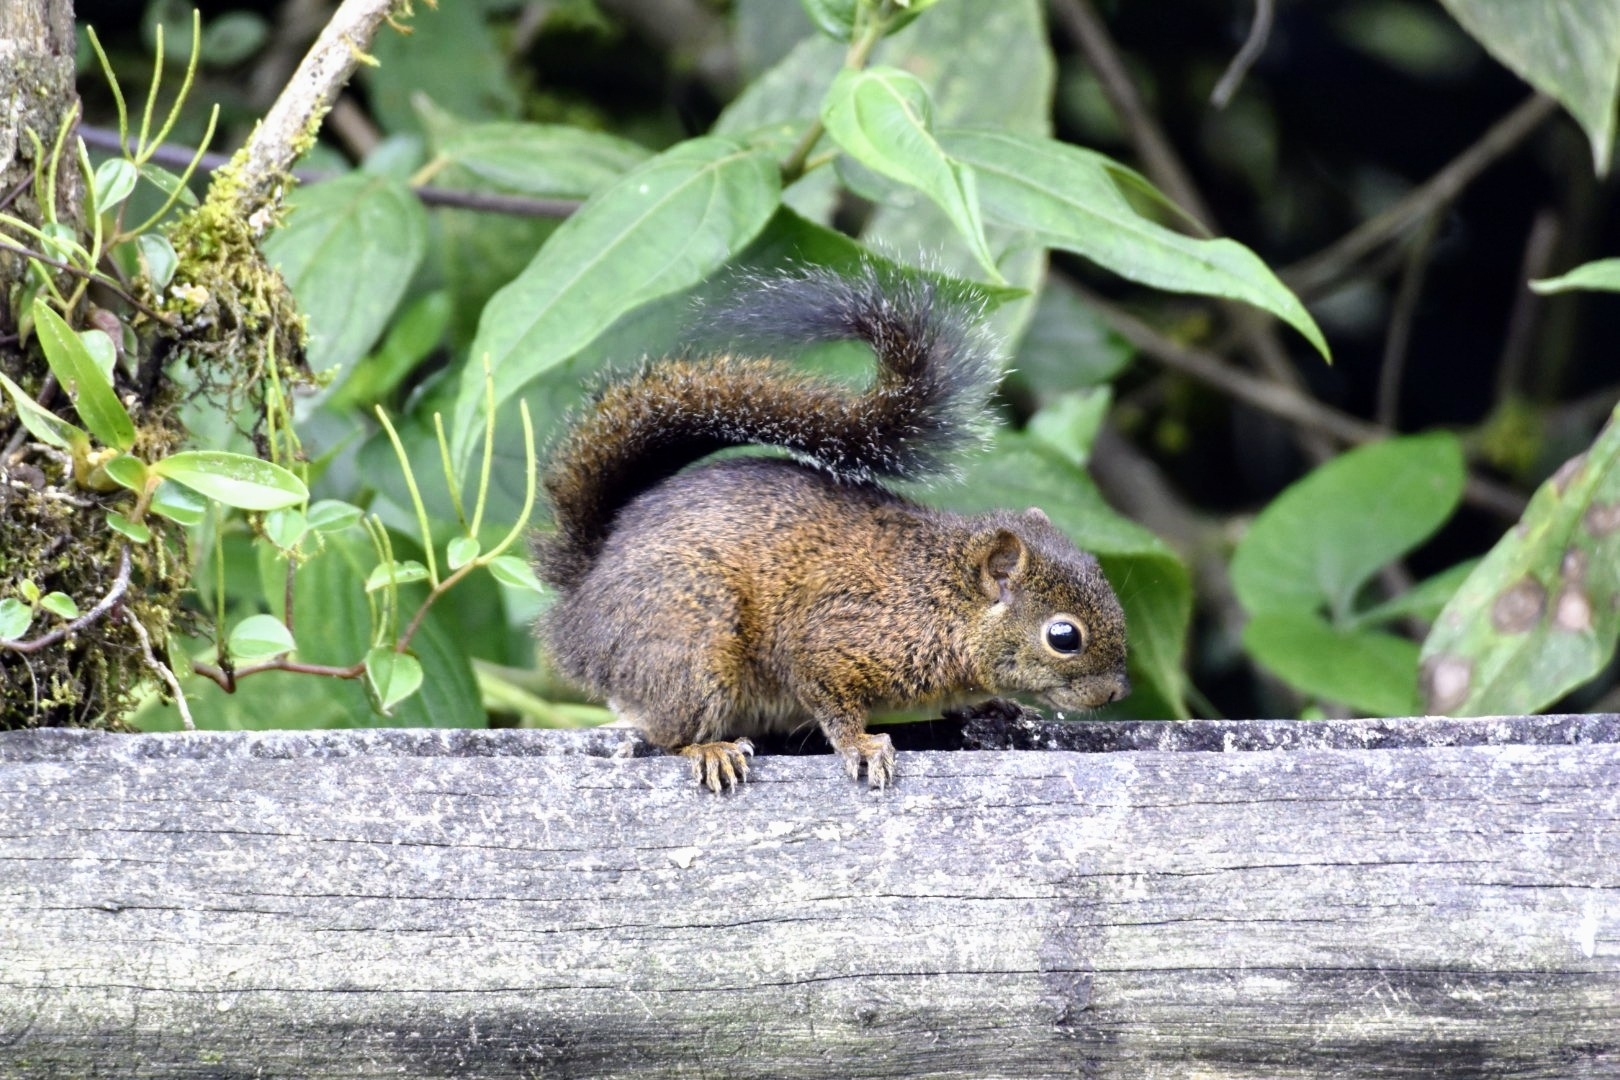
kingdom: Animalia
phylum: Chordata
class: Mammalia
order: Rodentia
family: Sciuridae
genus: Sciurus
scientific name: Sciurus pucheranii
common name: Andean squirrel
